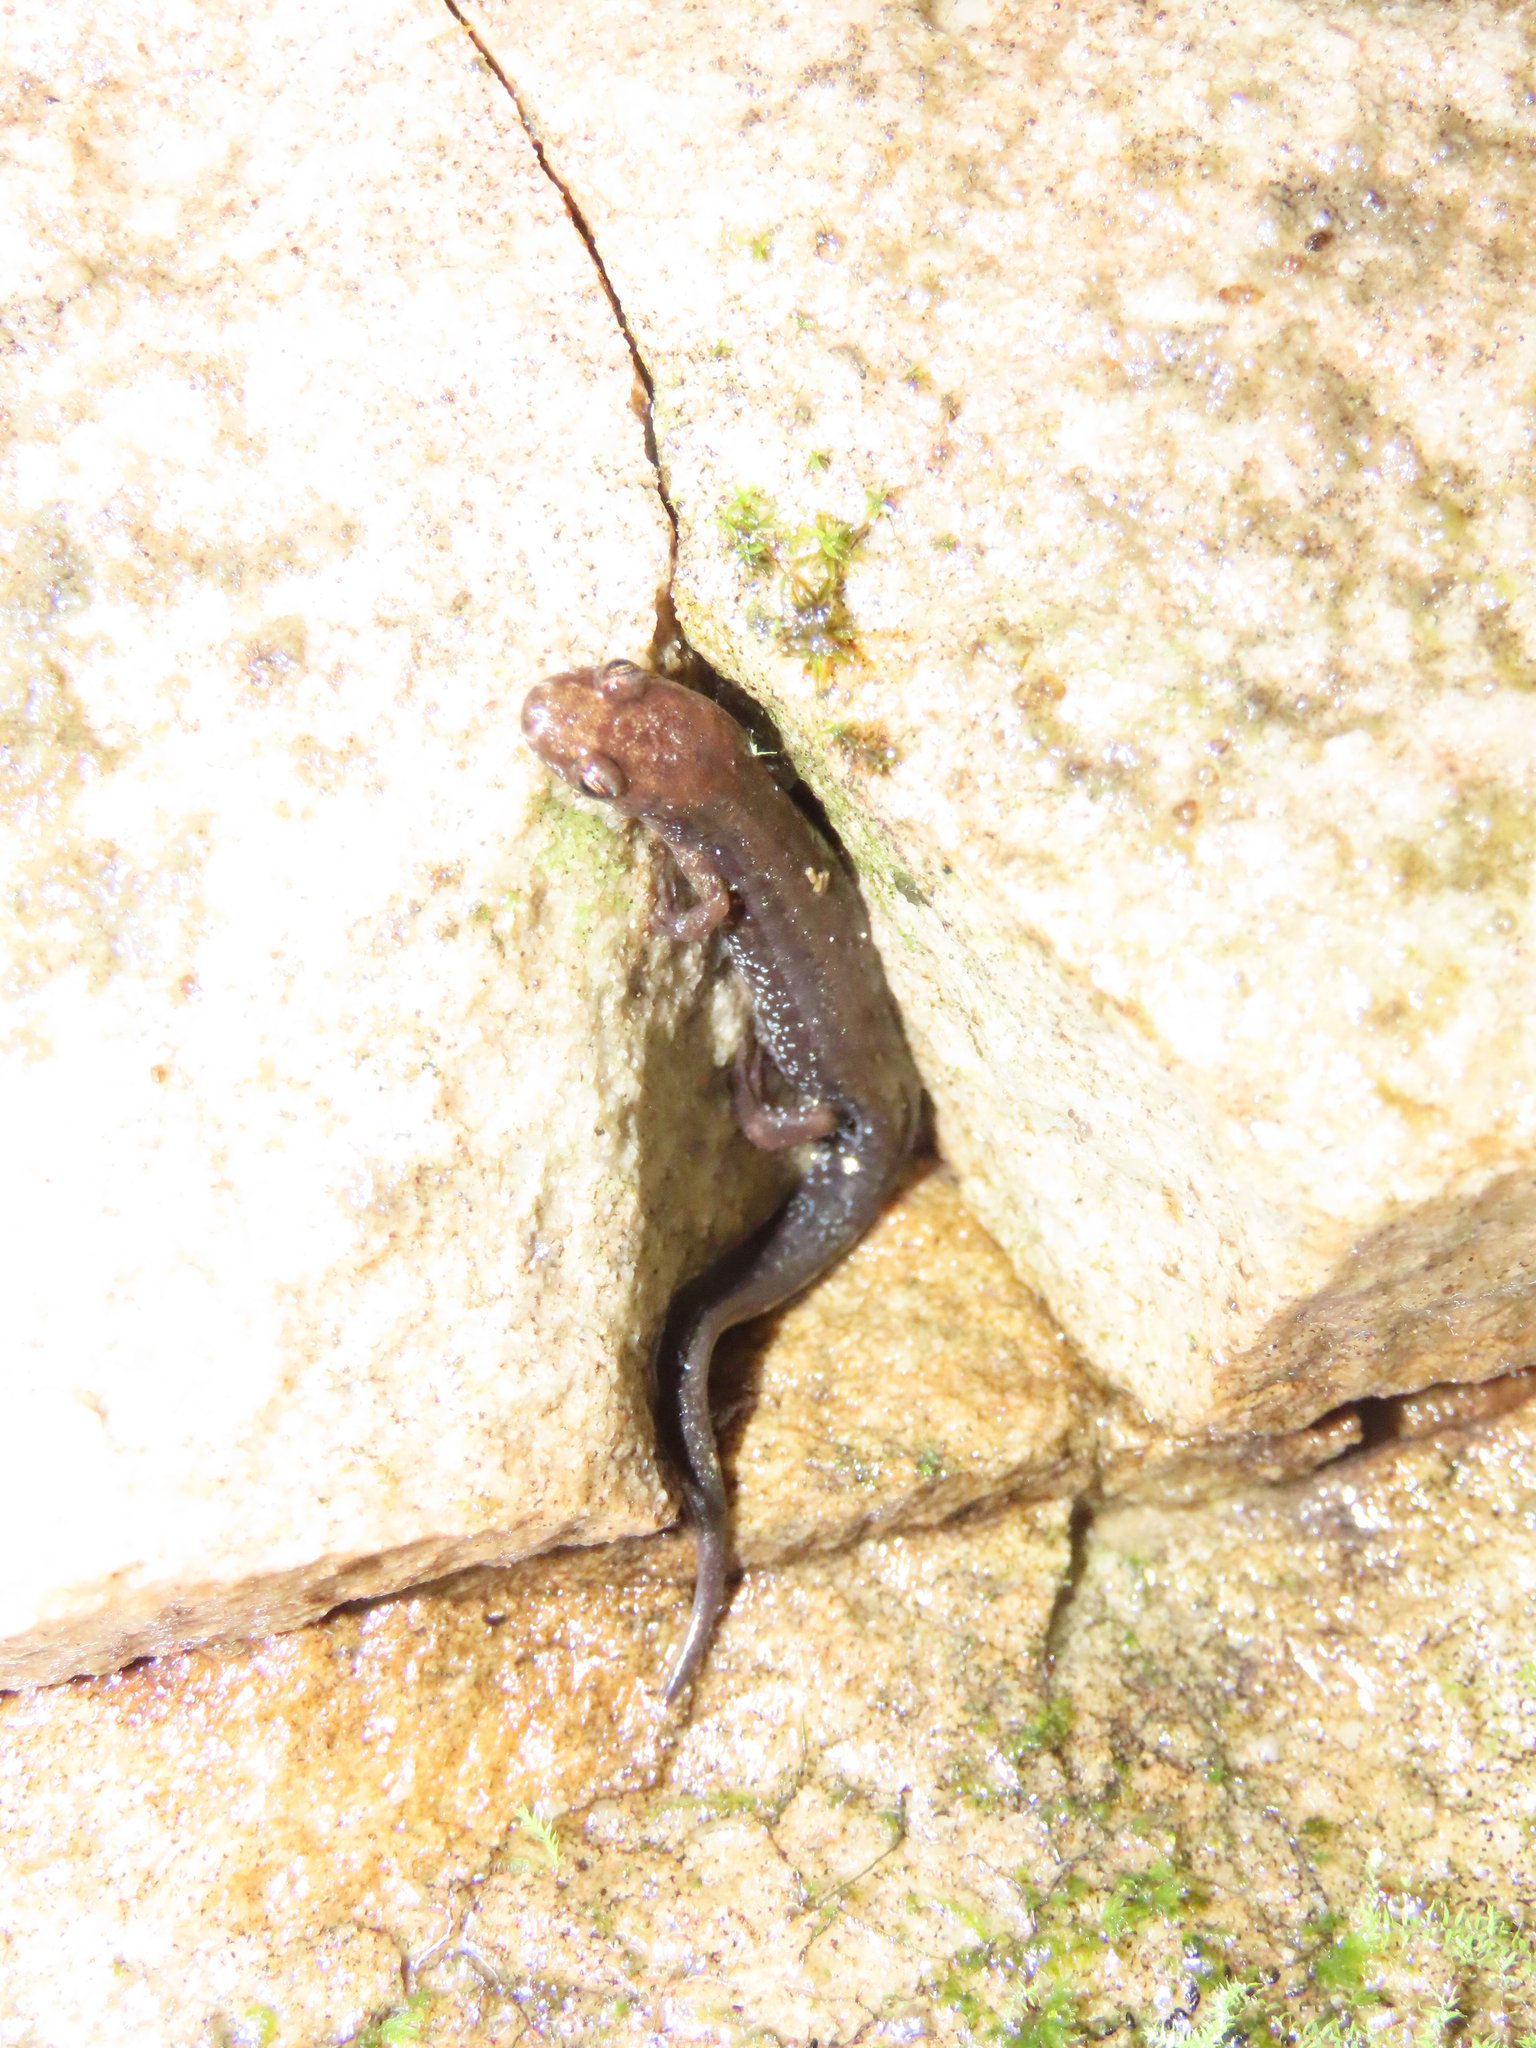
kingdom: Animalia
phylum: Chordata
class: Amphibia
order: Caudata
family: Plethodontidae
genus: Desmognathus
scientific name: Desmognathus ochrophaeus
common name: Allegheny mountain dusky salamander
